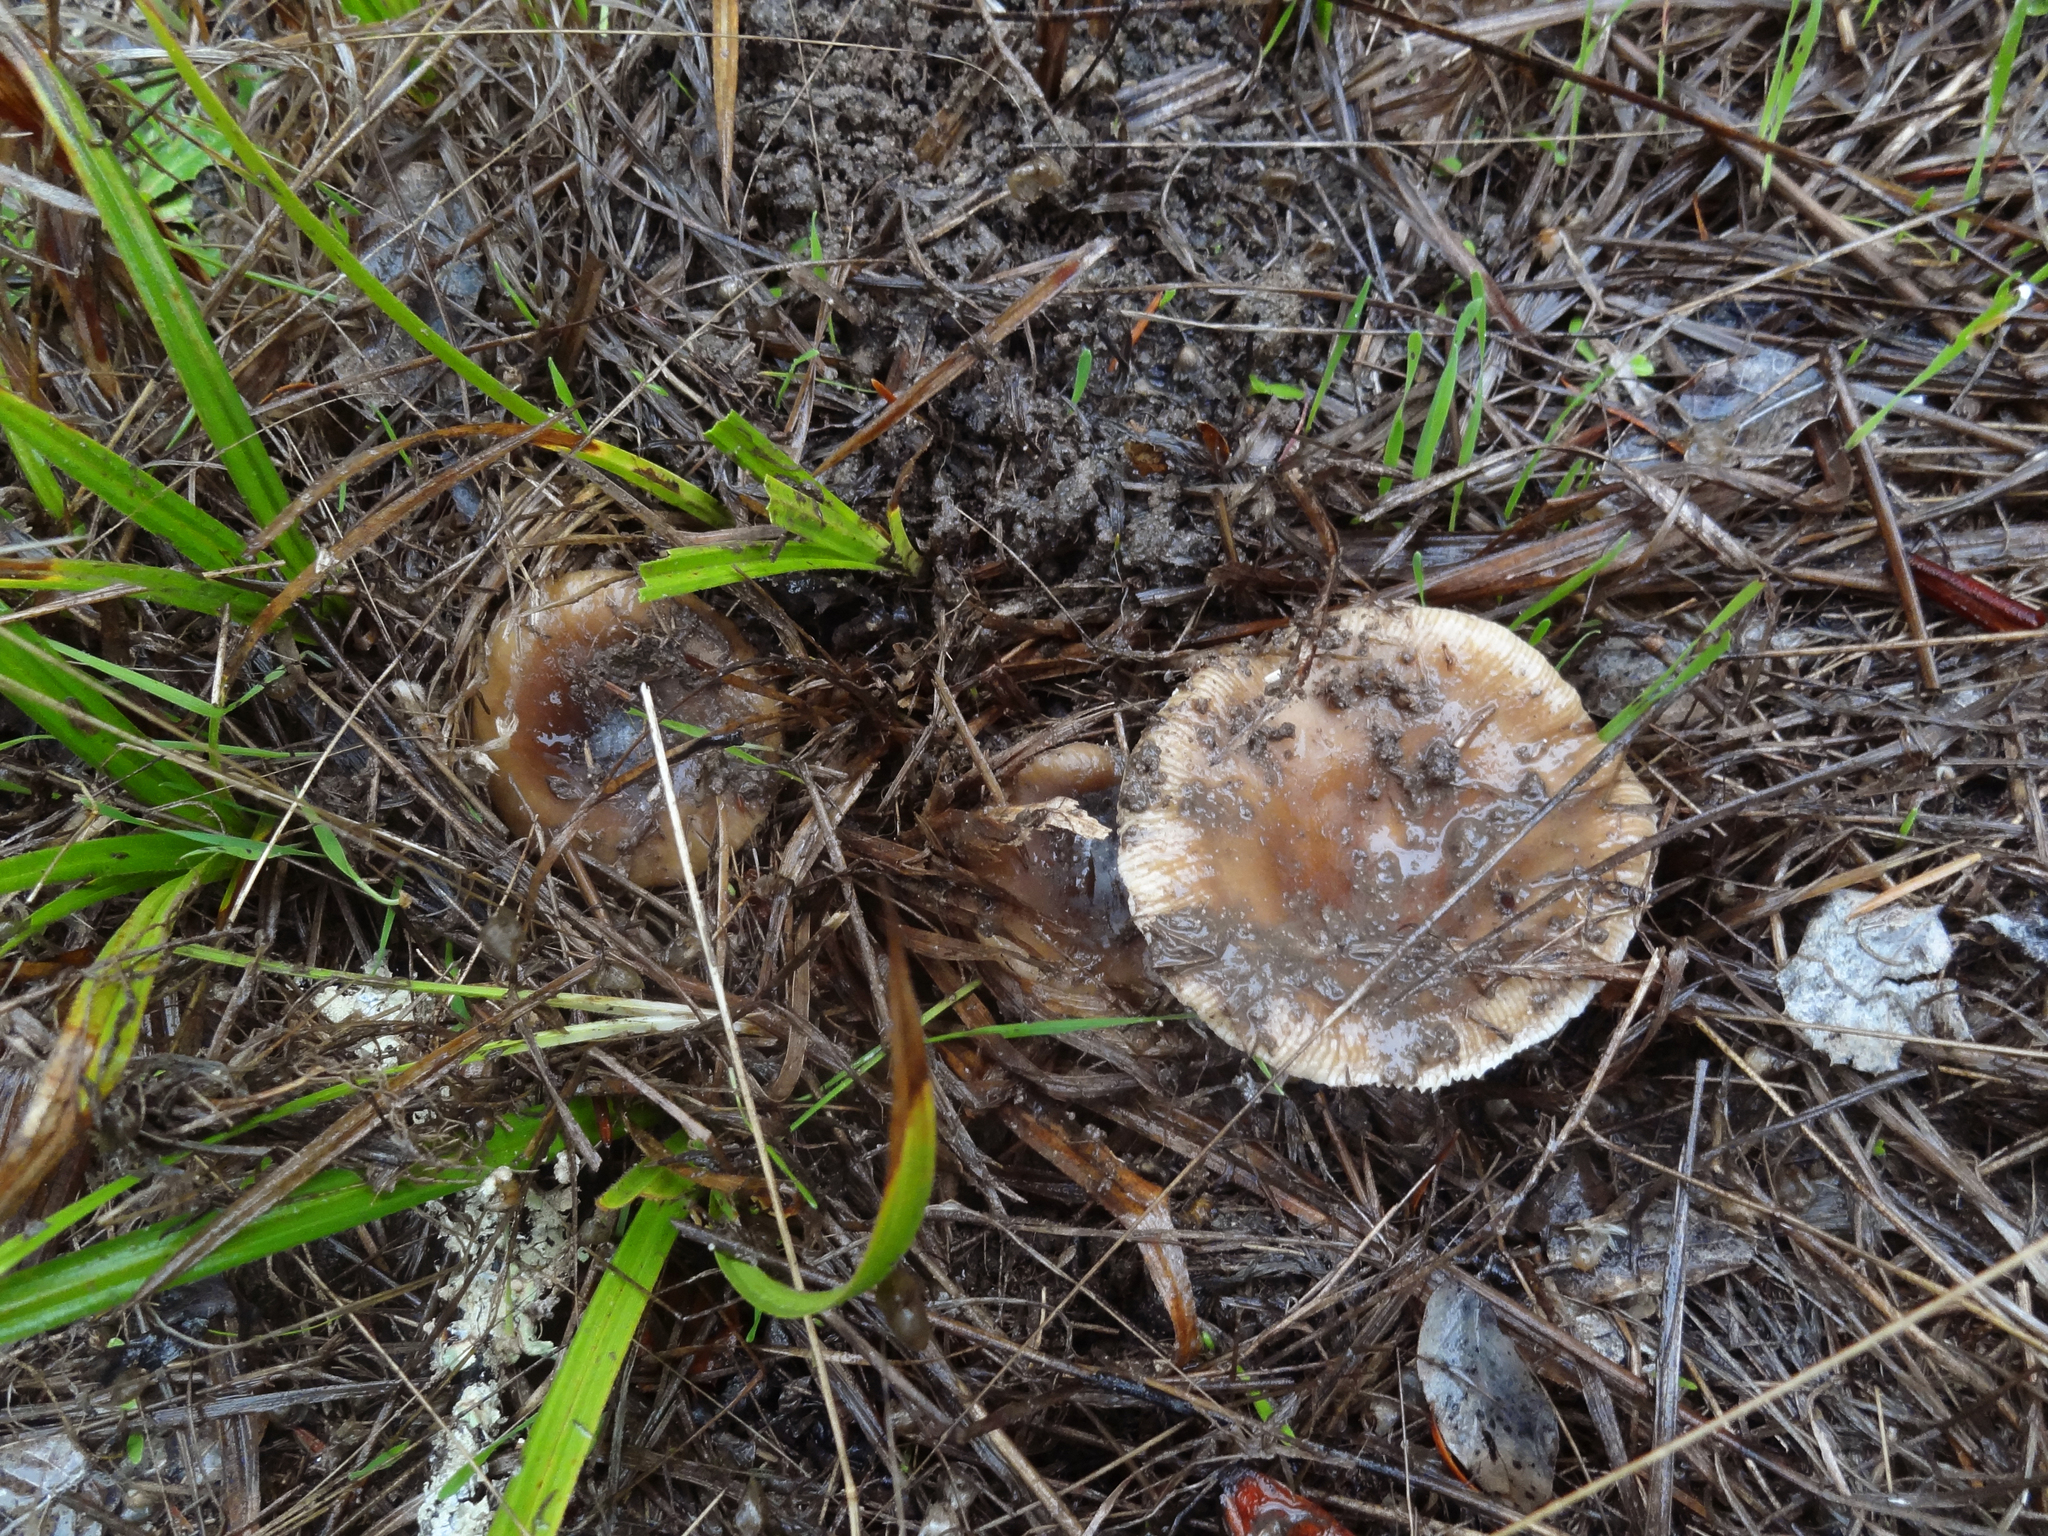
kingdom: Fungi
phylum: Basidiomycota
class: Agaricomycetes
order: Russulales
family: Russulaceae
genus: Russula
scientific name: Russula amoenolens
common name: Camembert brittlegill
